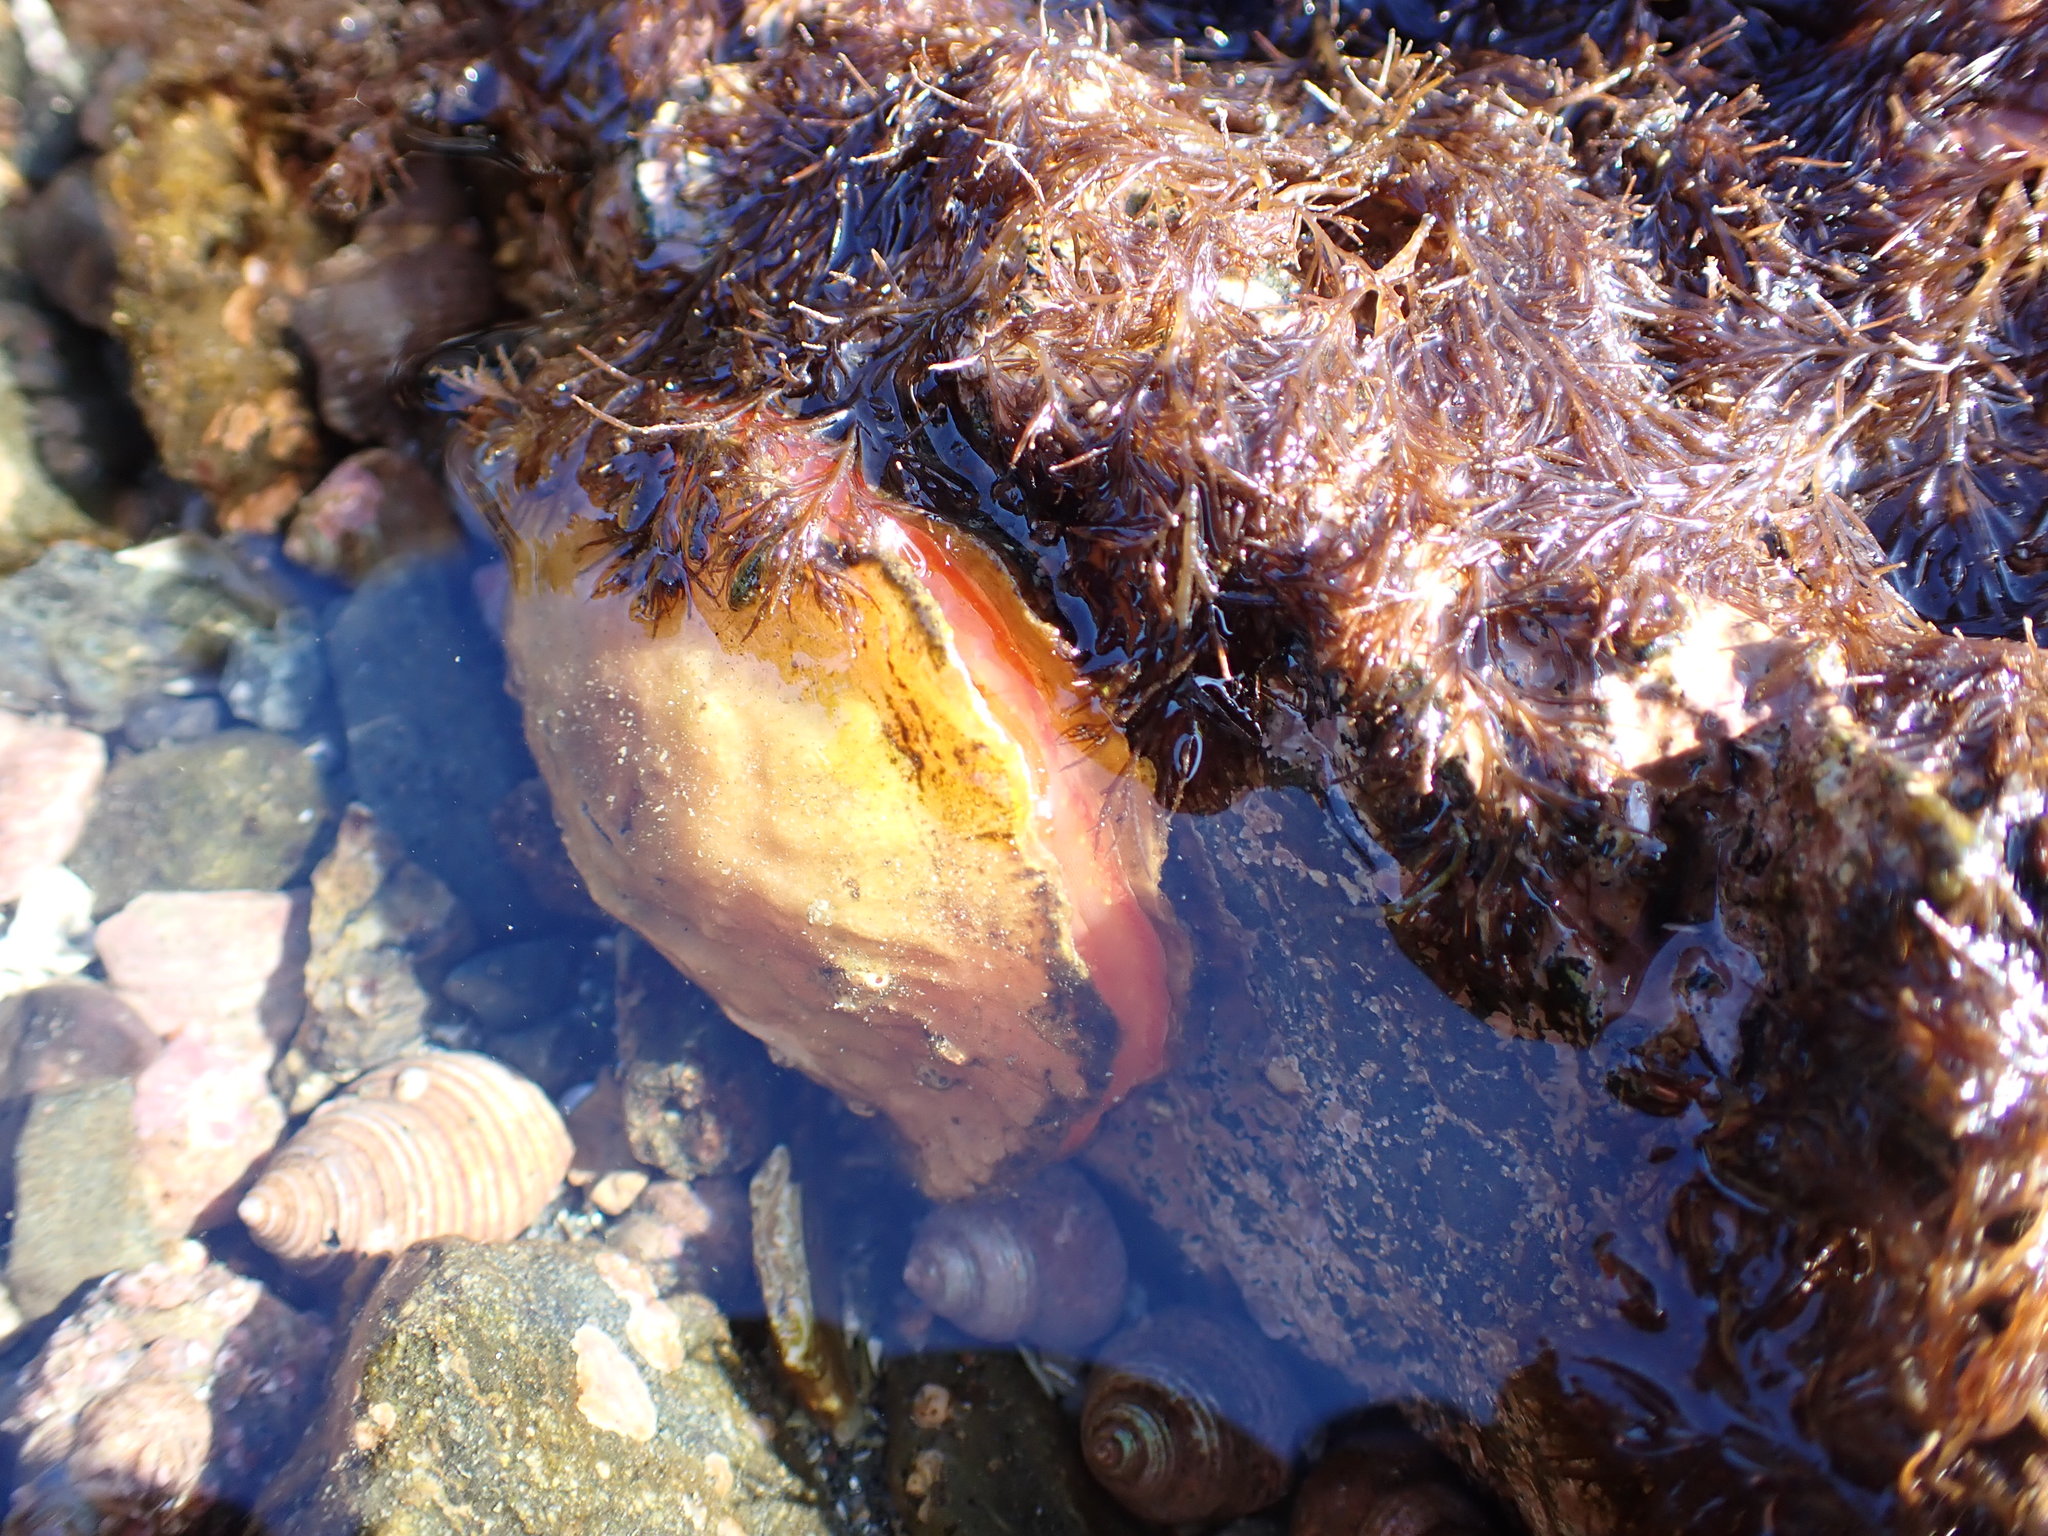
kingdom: Animalia
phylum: Mollusca
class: Bivalvia
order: Pectinida
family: Anomiidae
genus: Pododesmus
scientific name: Pododesmus macrochisma
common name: Alaska jingle
